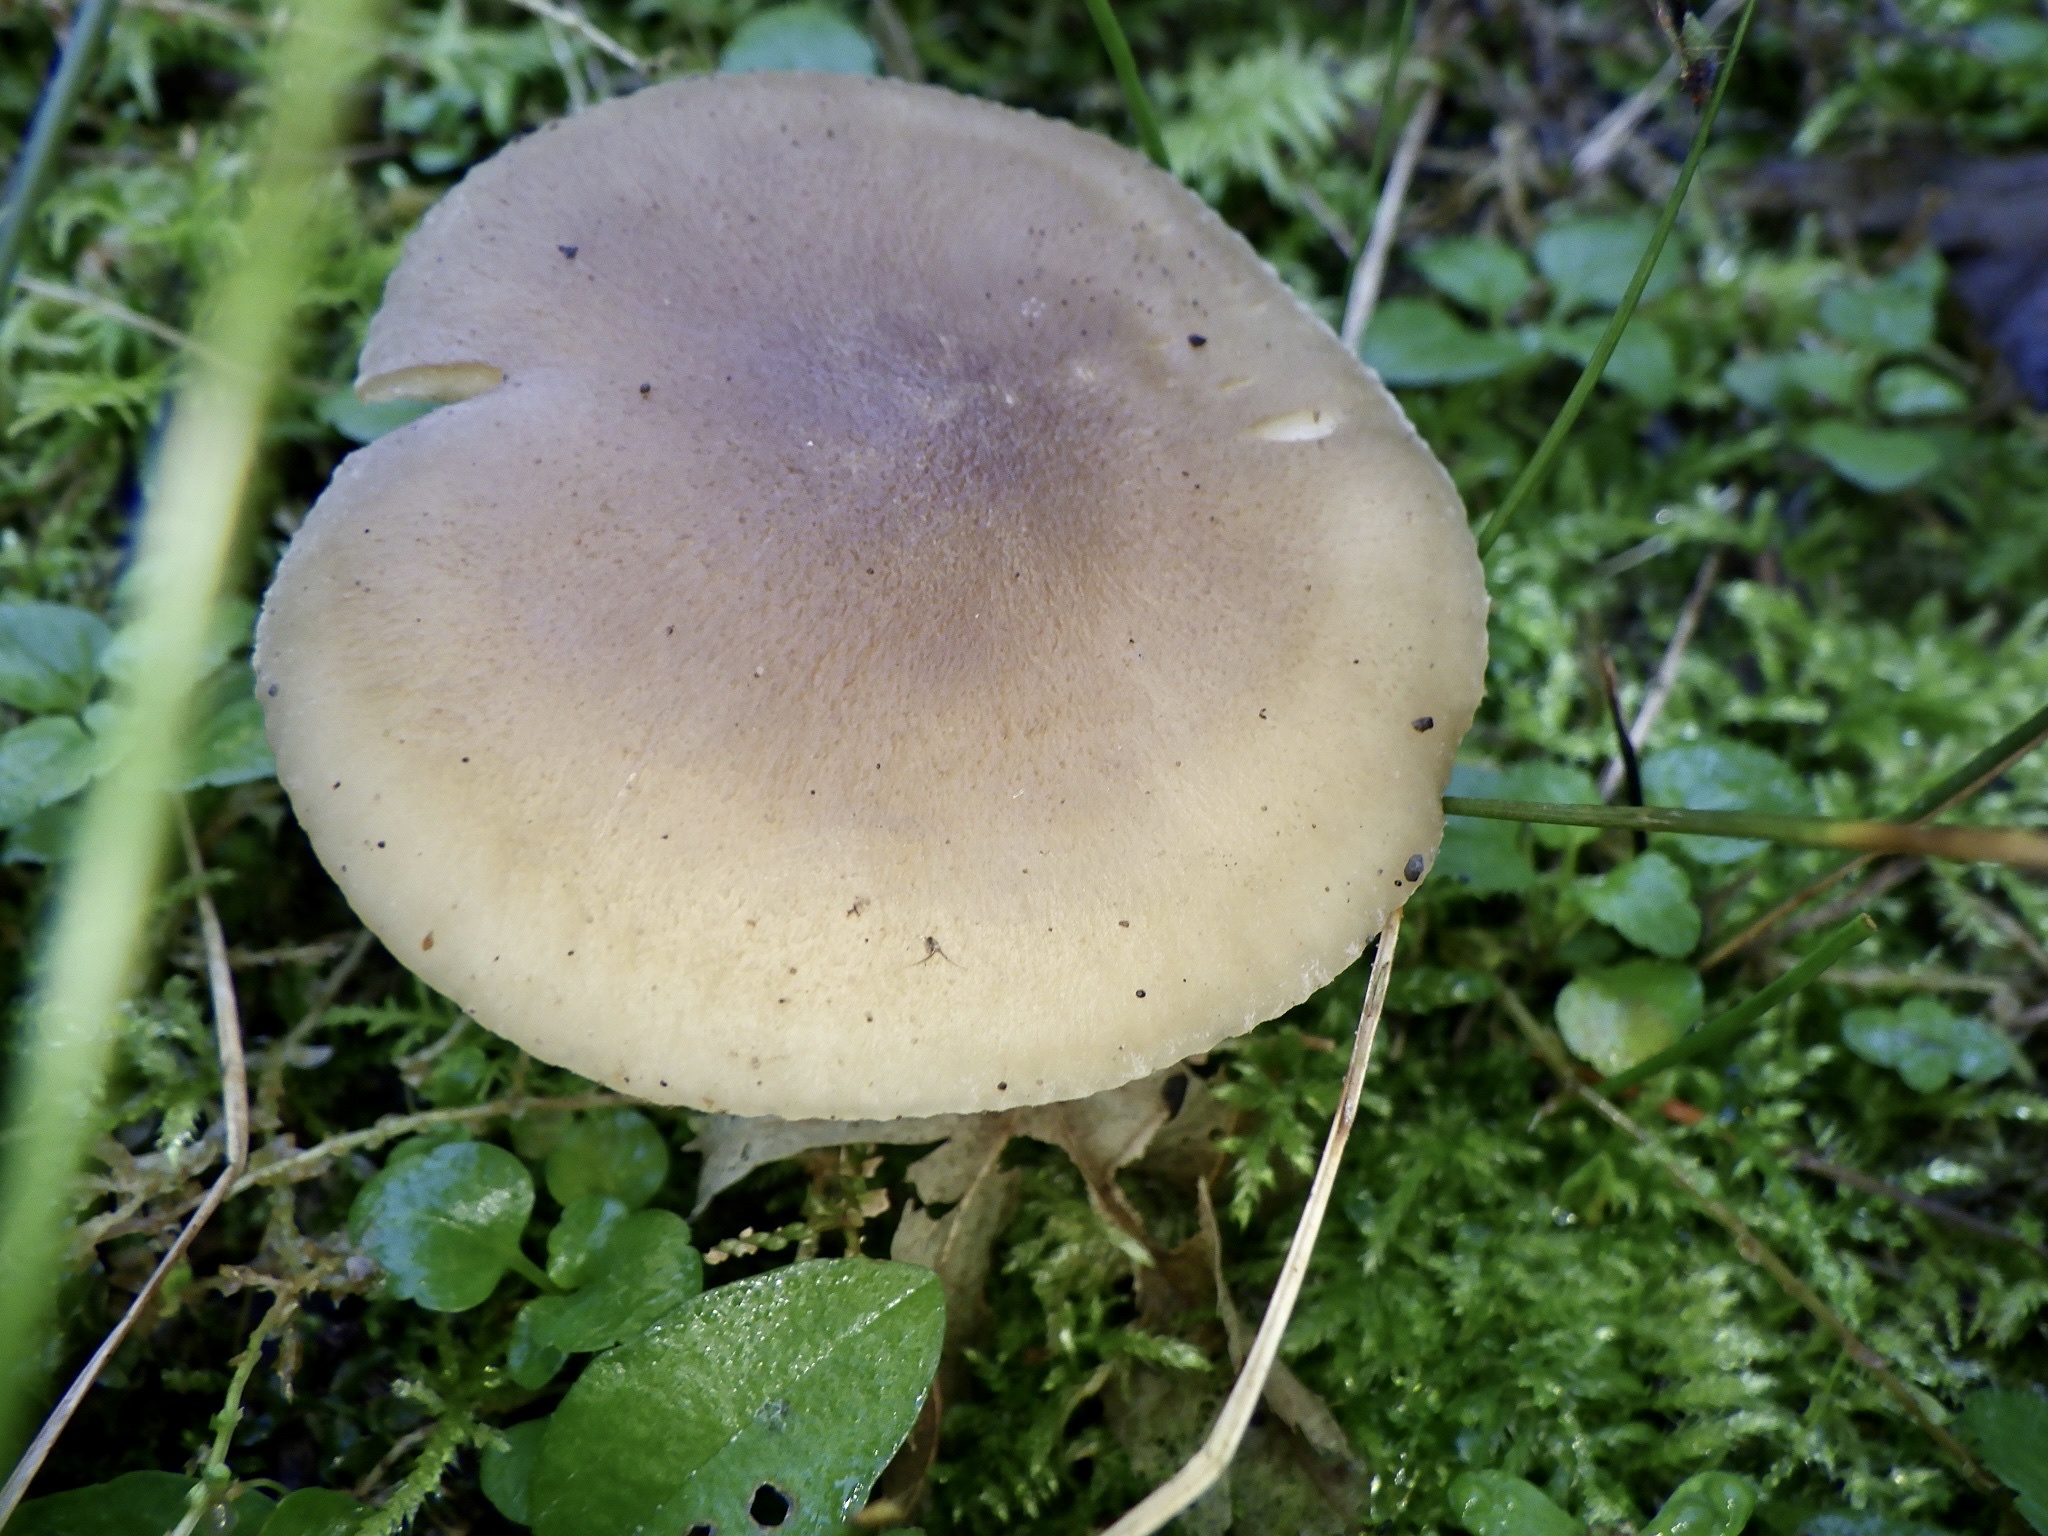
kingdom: Fungi
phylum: Basidiomycota
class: Agaricomycetes
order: Agaricales
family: Lyophyllaceae
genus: Lyophyllum
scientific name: Lyophyllum decastes
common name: Clustered domecap
